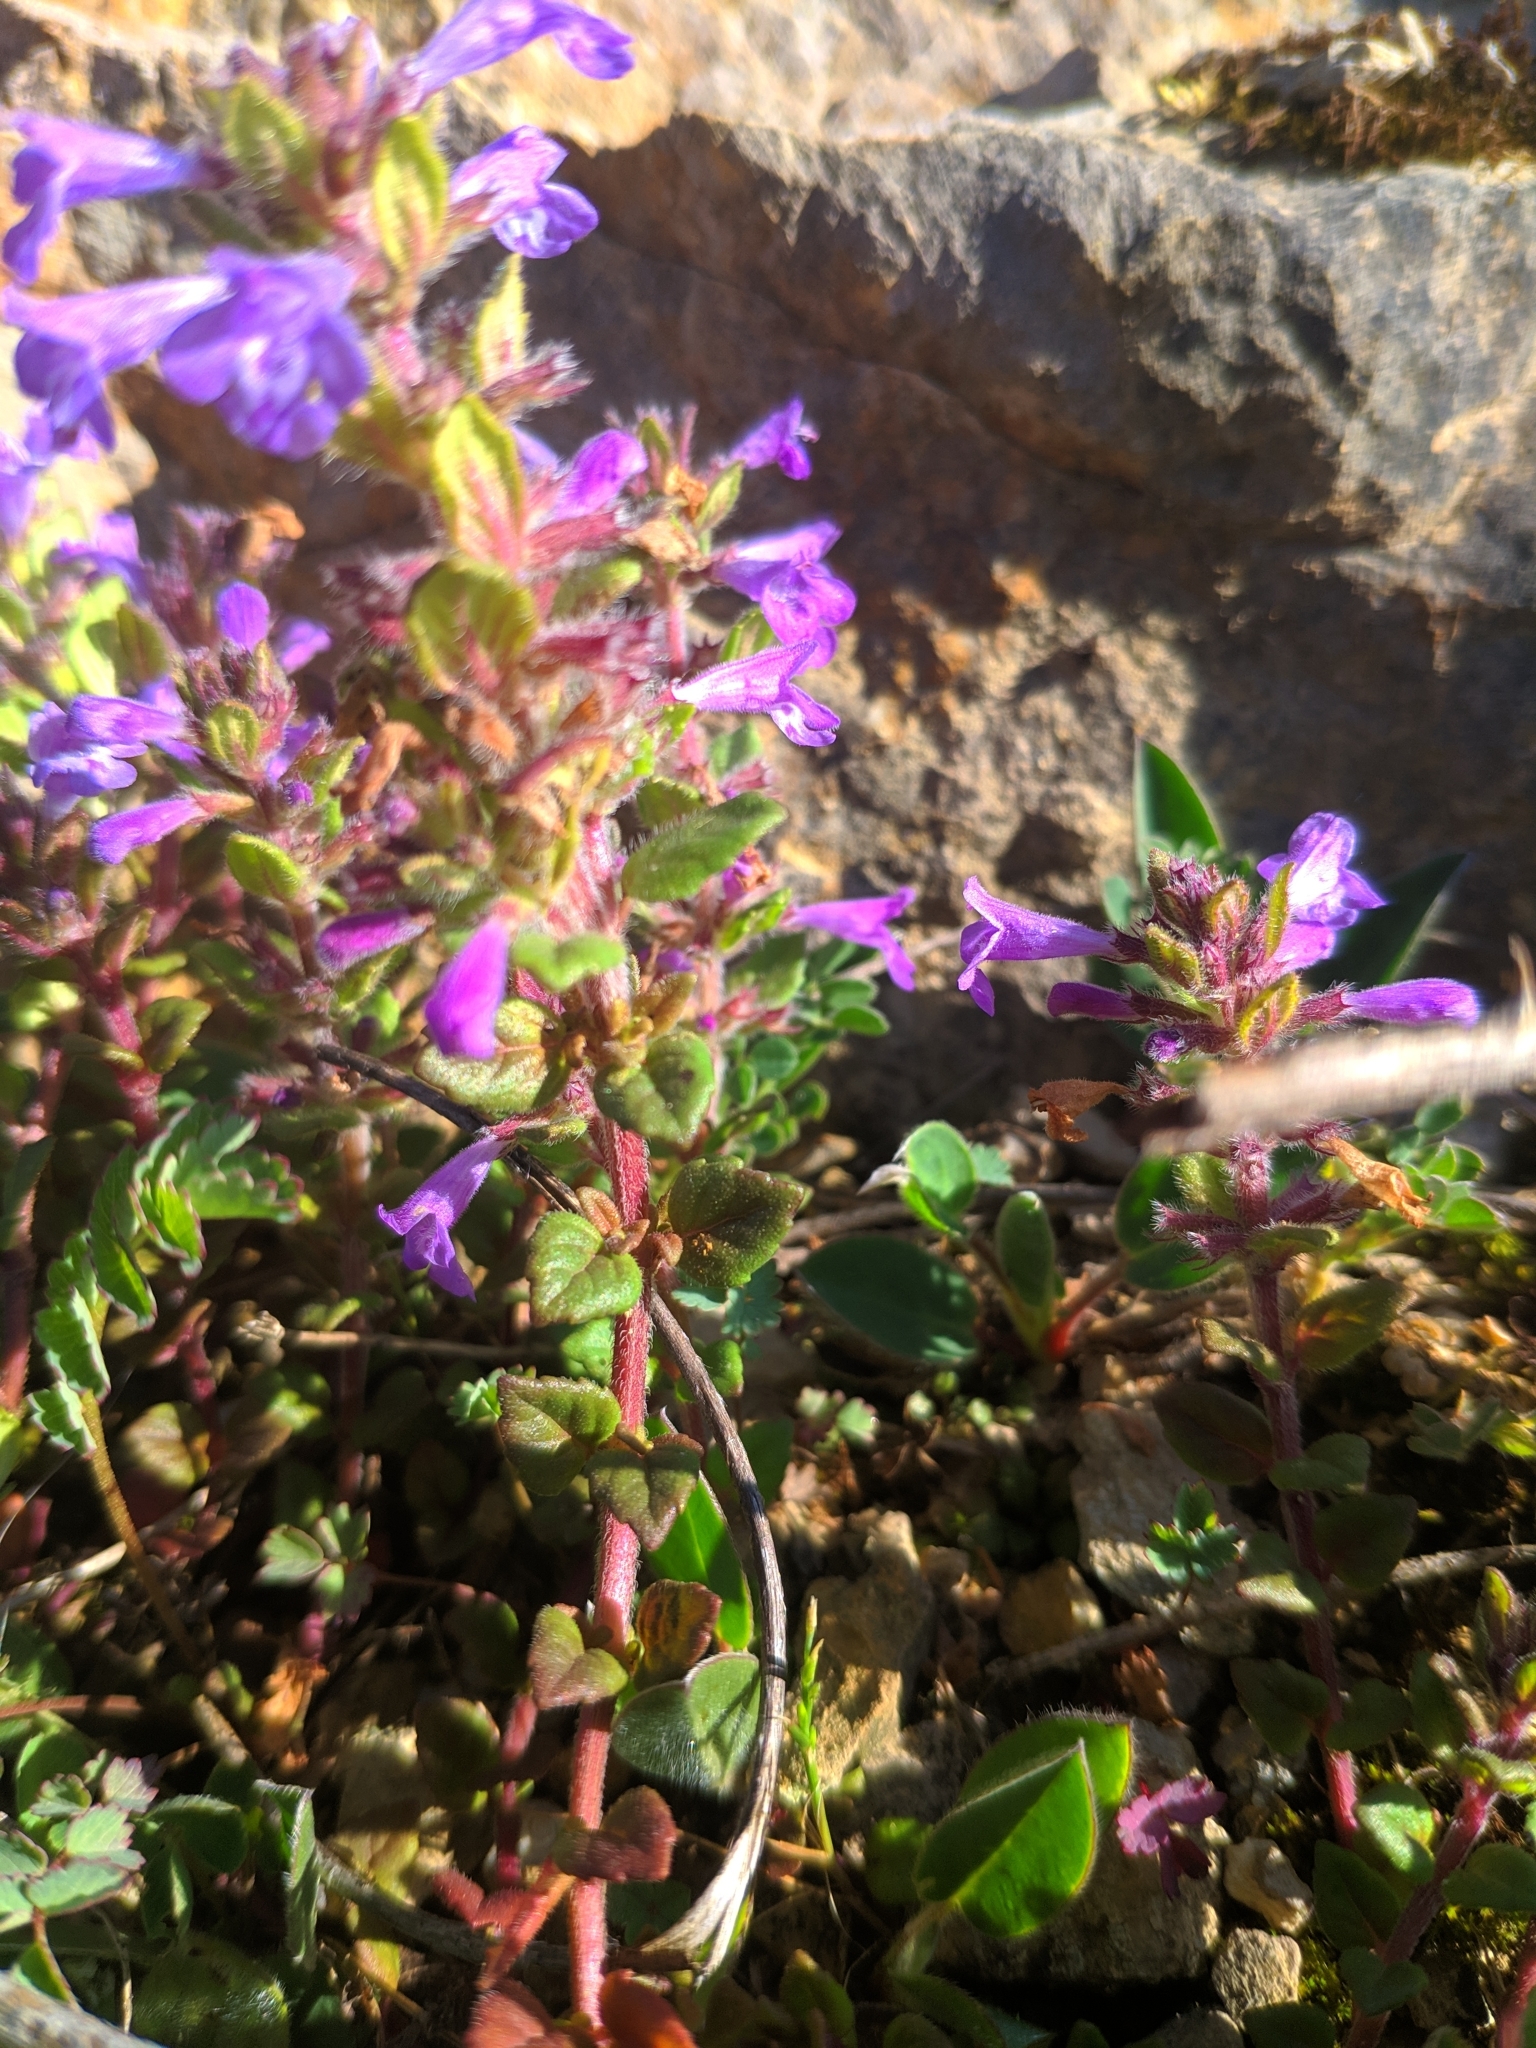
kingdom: Plantae
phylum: Tracheophyta
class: Magnoliopsida
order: Lamiales
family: Lamiaceae
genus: Clinopodium
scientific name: Clinopodium alpinum
